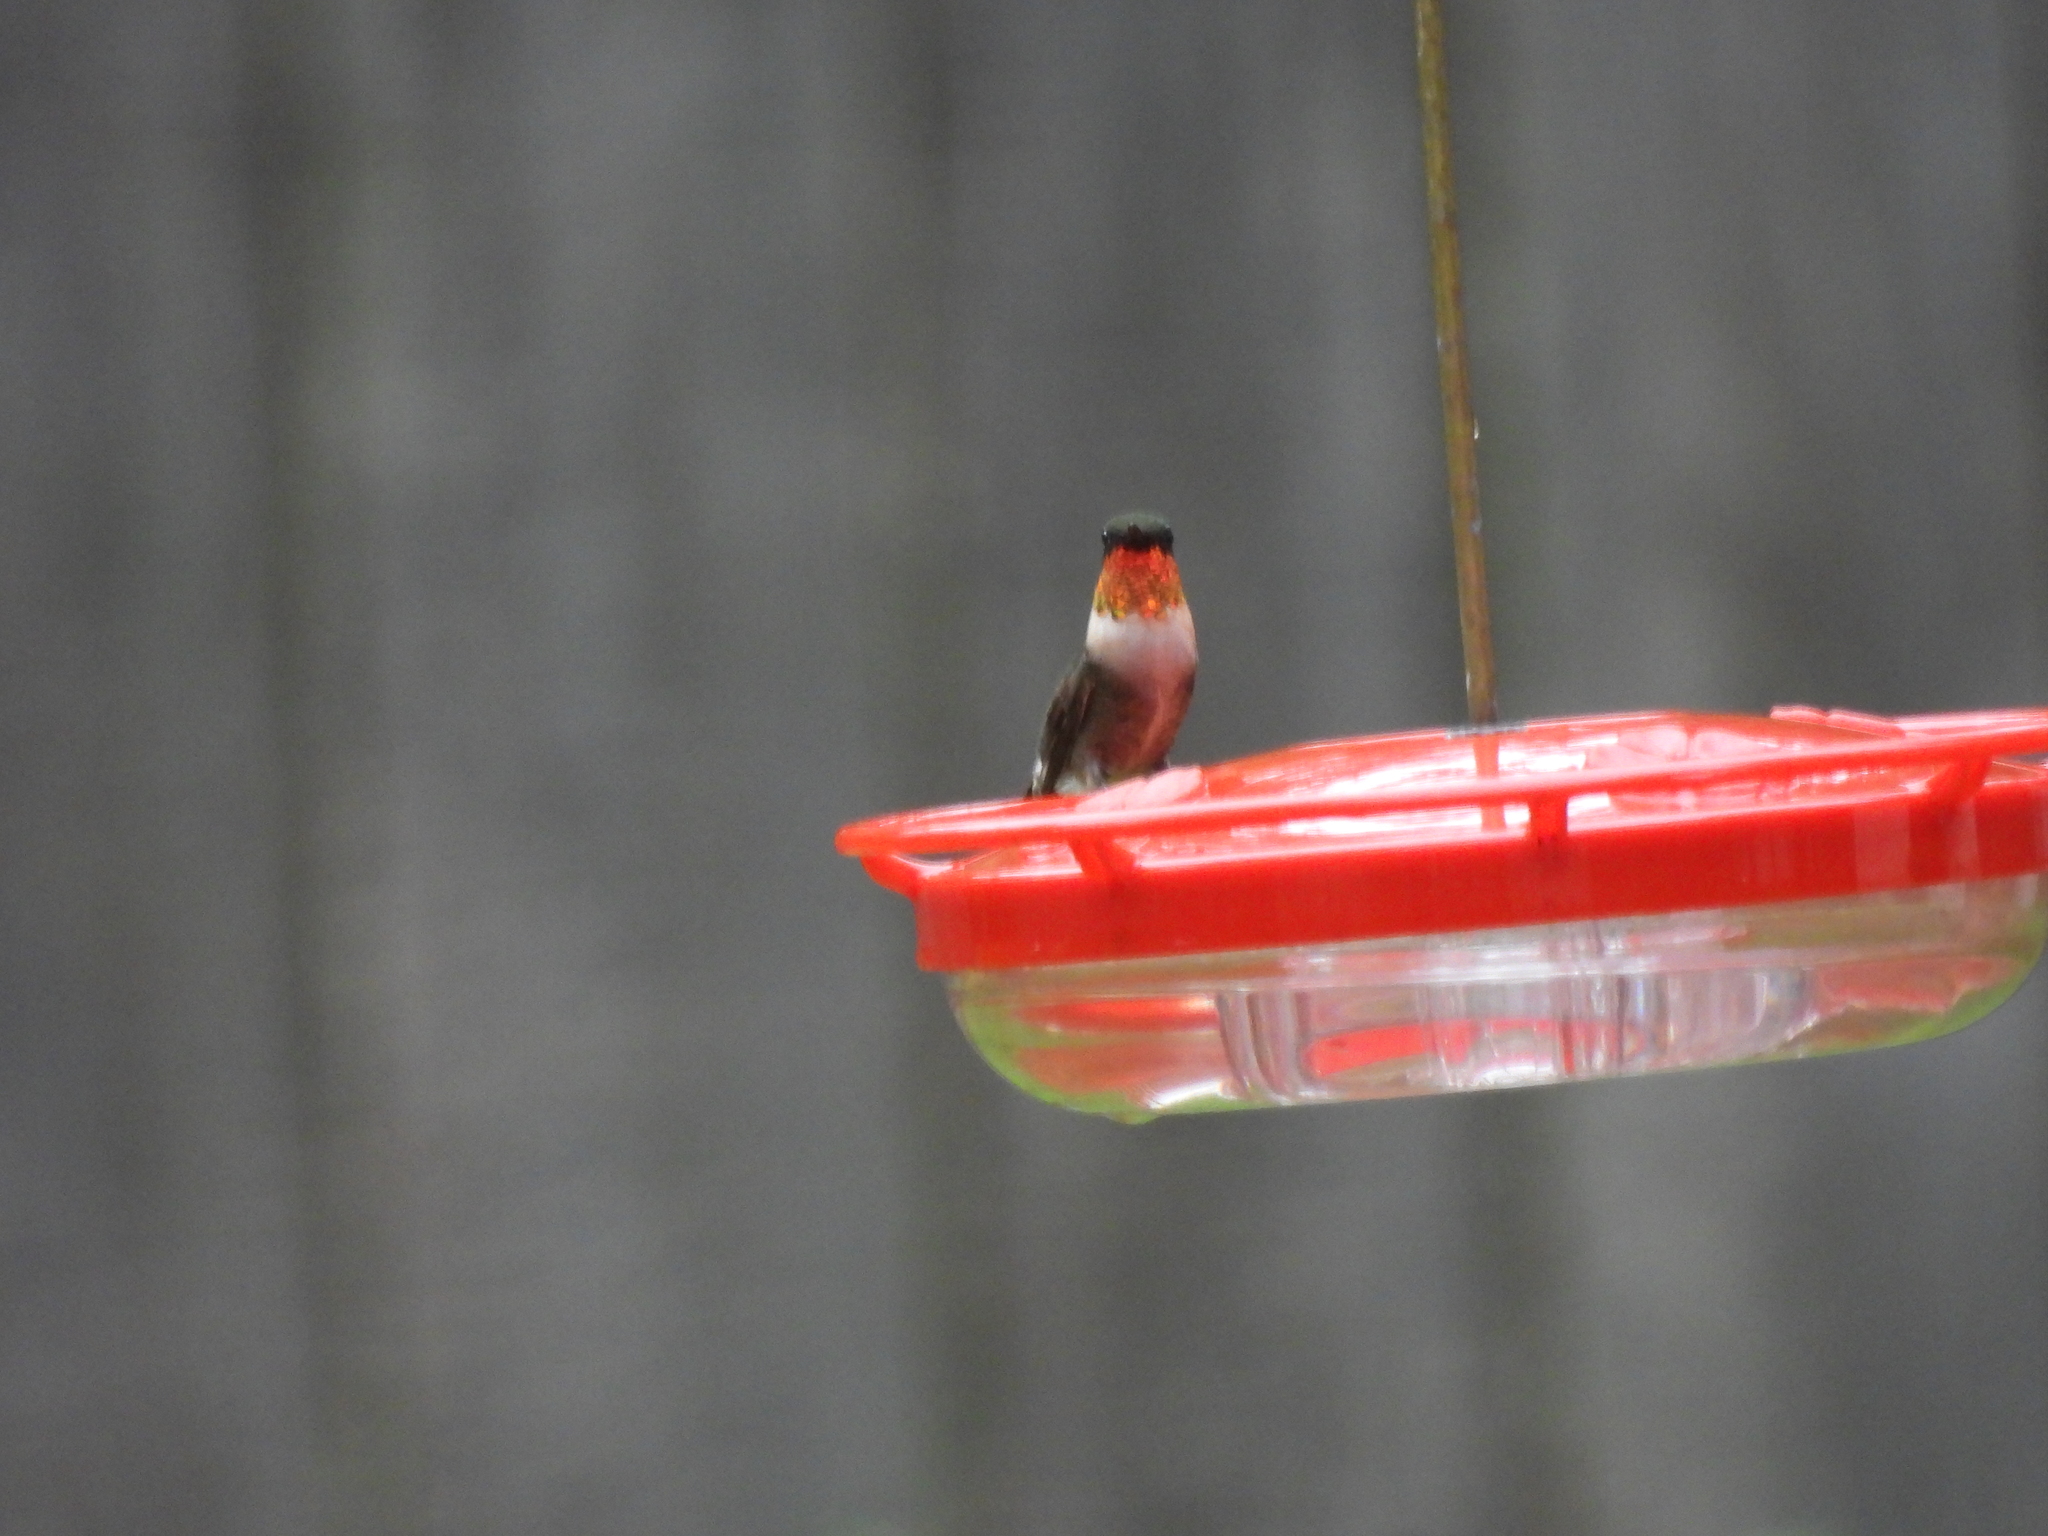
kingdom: Animalia
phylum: Chordata
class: Aves
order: Apodiformes
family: Trochilidae
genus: Archilochus
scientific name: Archilochus colubris
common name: Ruby-throated hummingbird
